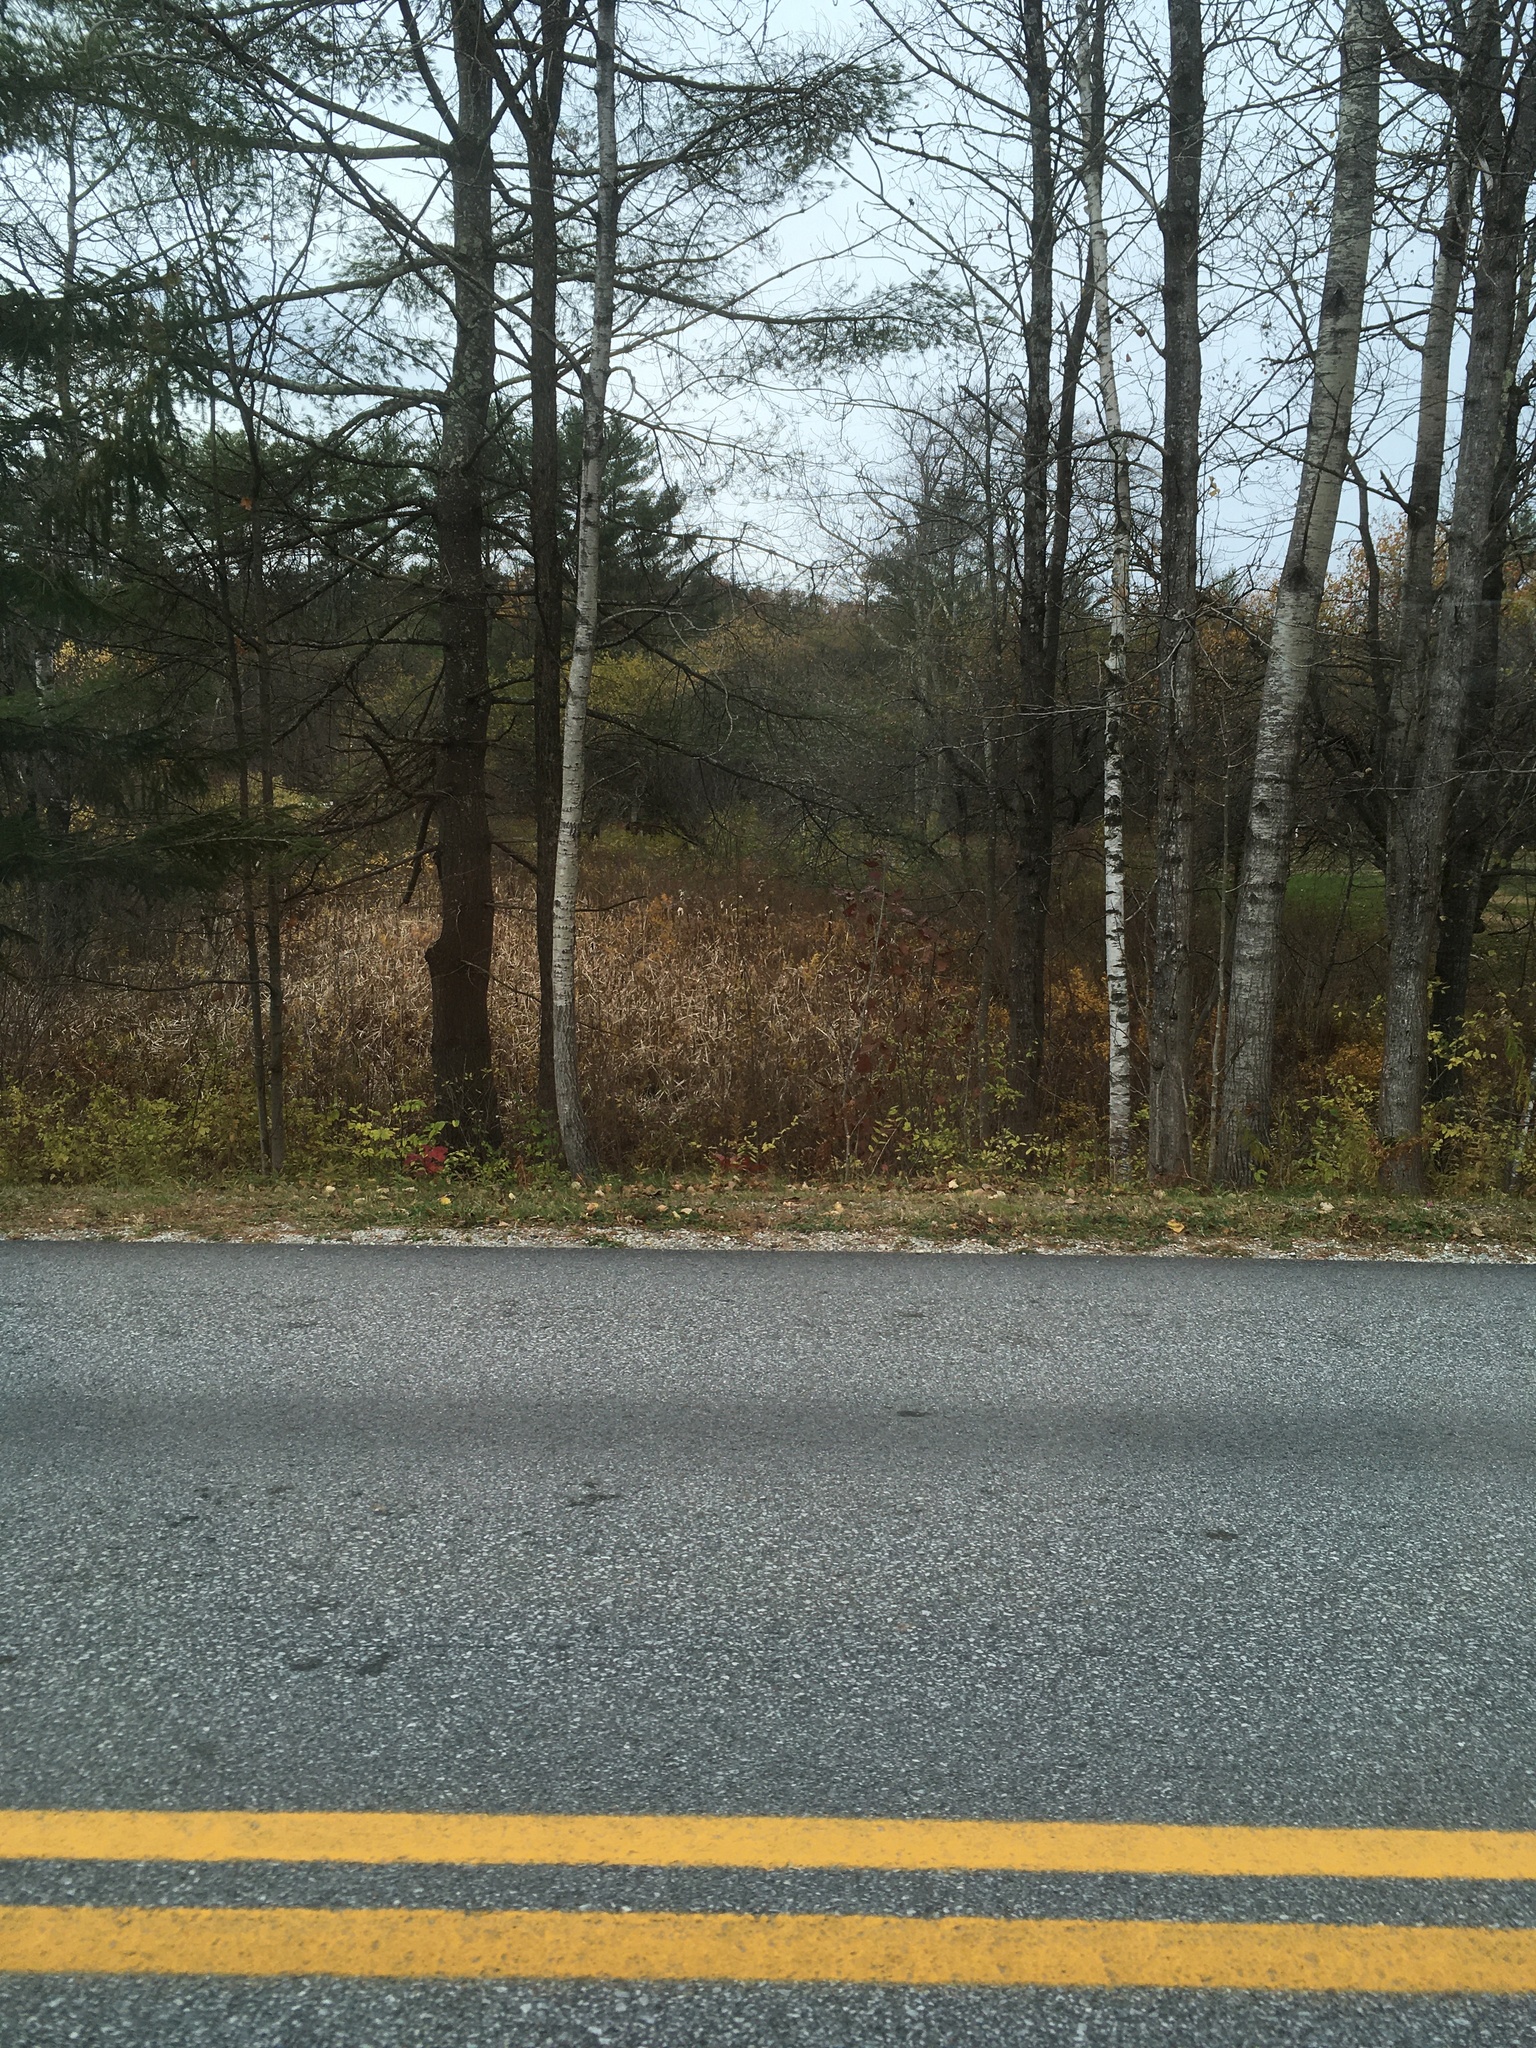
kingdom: Plantae
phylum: Tracheophyta
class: Magnoliopsida
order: Malpighiales
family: Salicaceae
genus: Populus
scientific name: Populus tremuloides
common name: Quaking aspen
